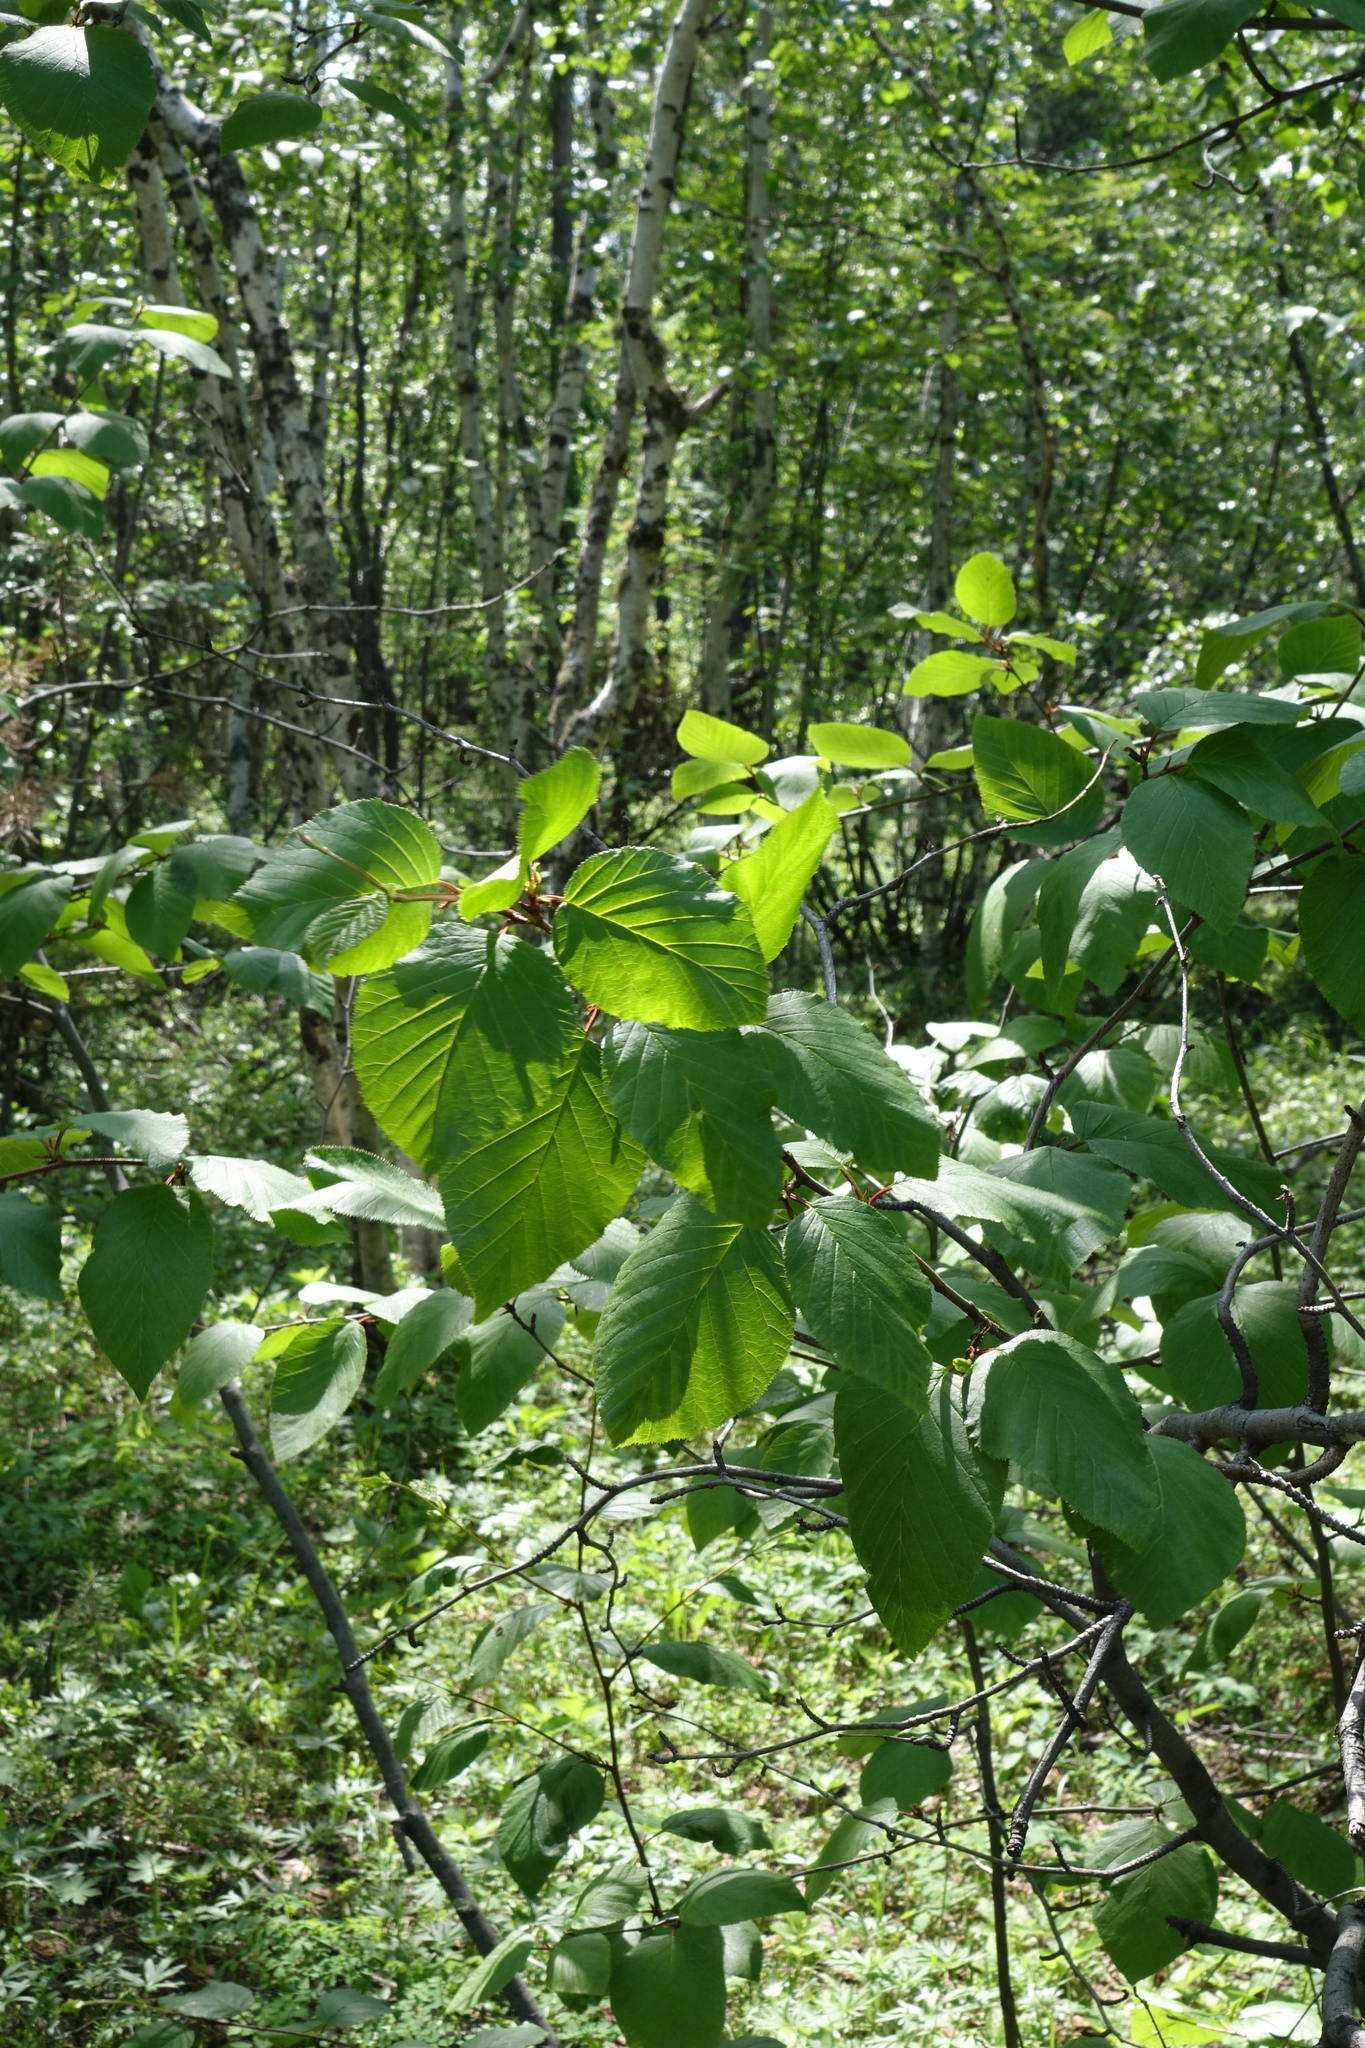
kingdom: Plantae
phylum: Tracheophyta
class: Magnoliopsida
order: Fagales
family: Betulaceae
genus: Alnus
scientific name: Alnus alnobetula
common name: Green alder
